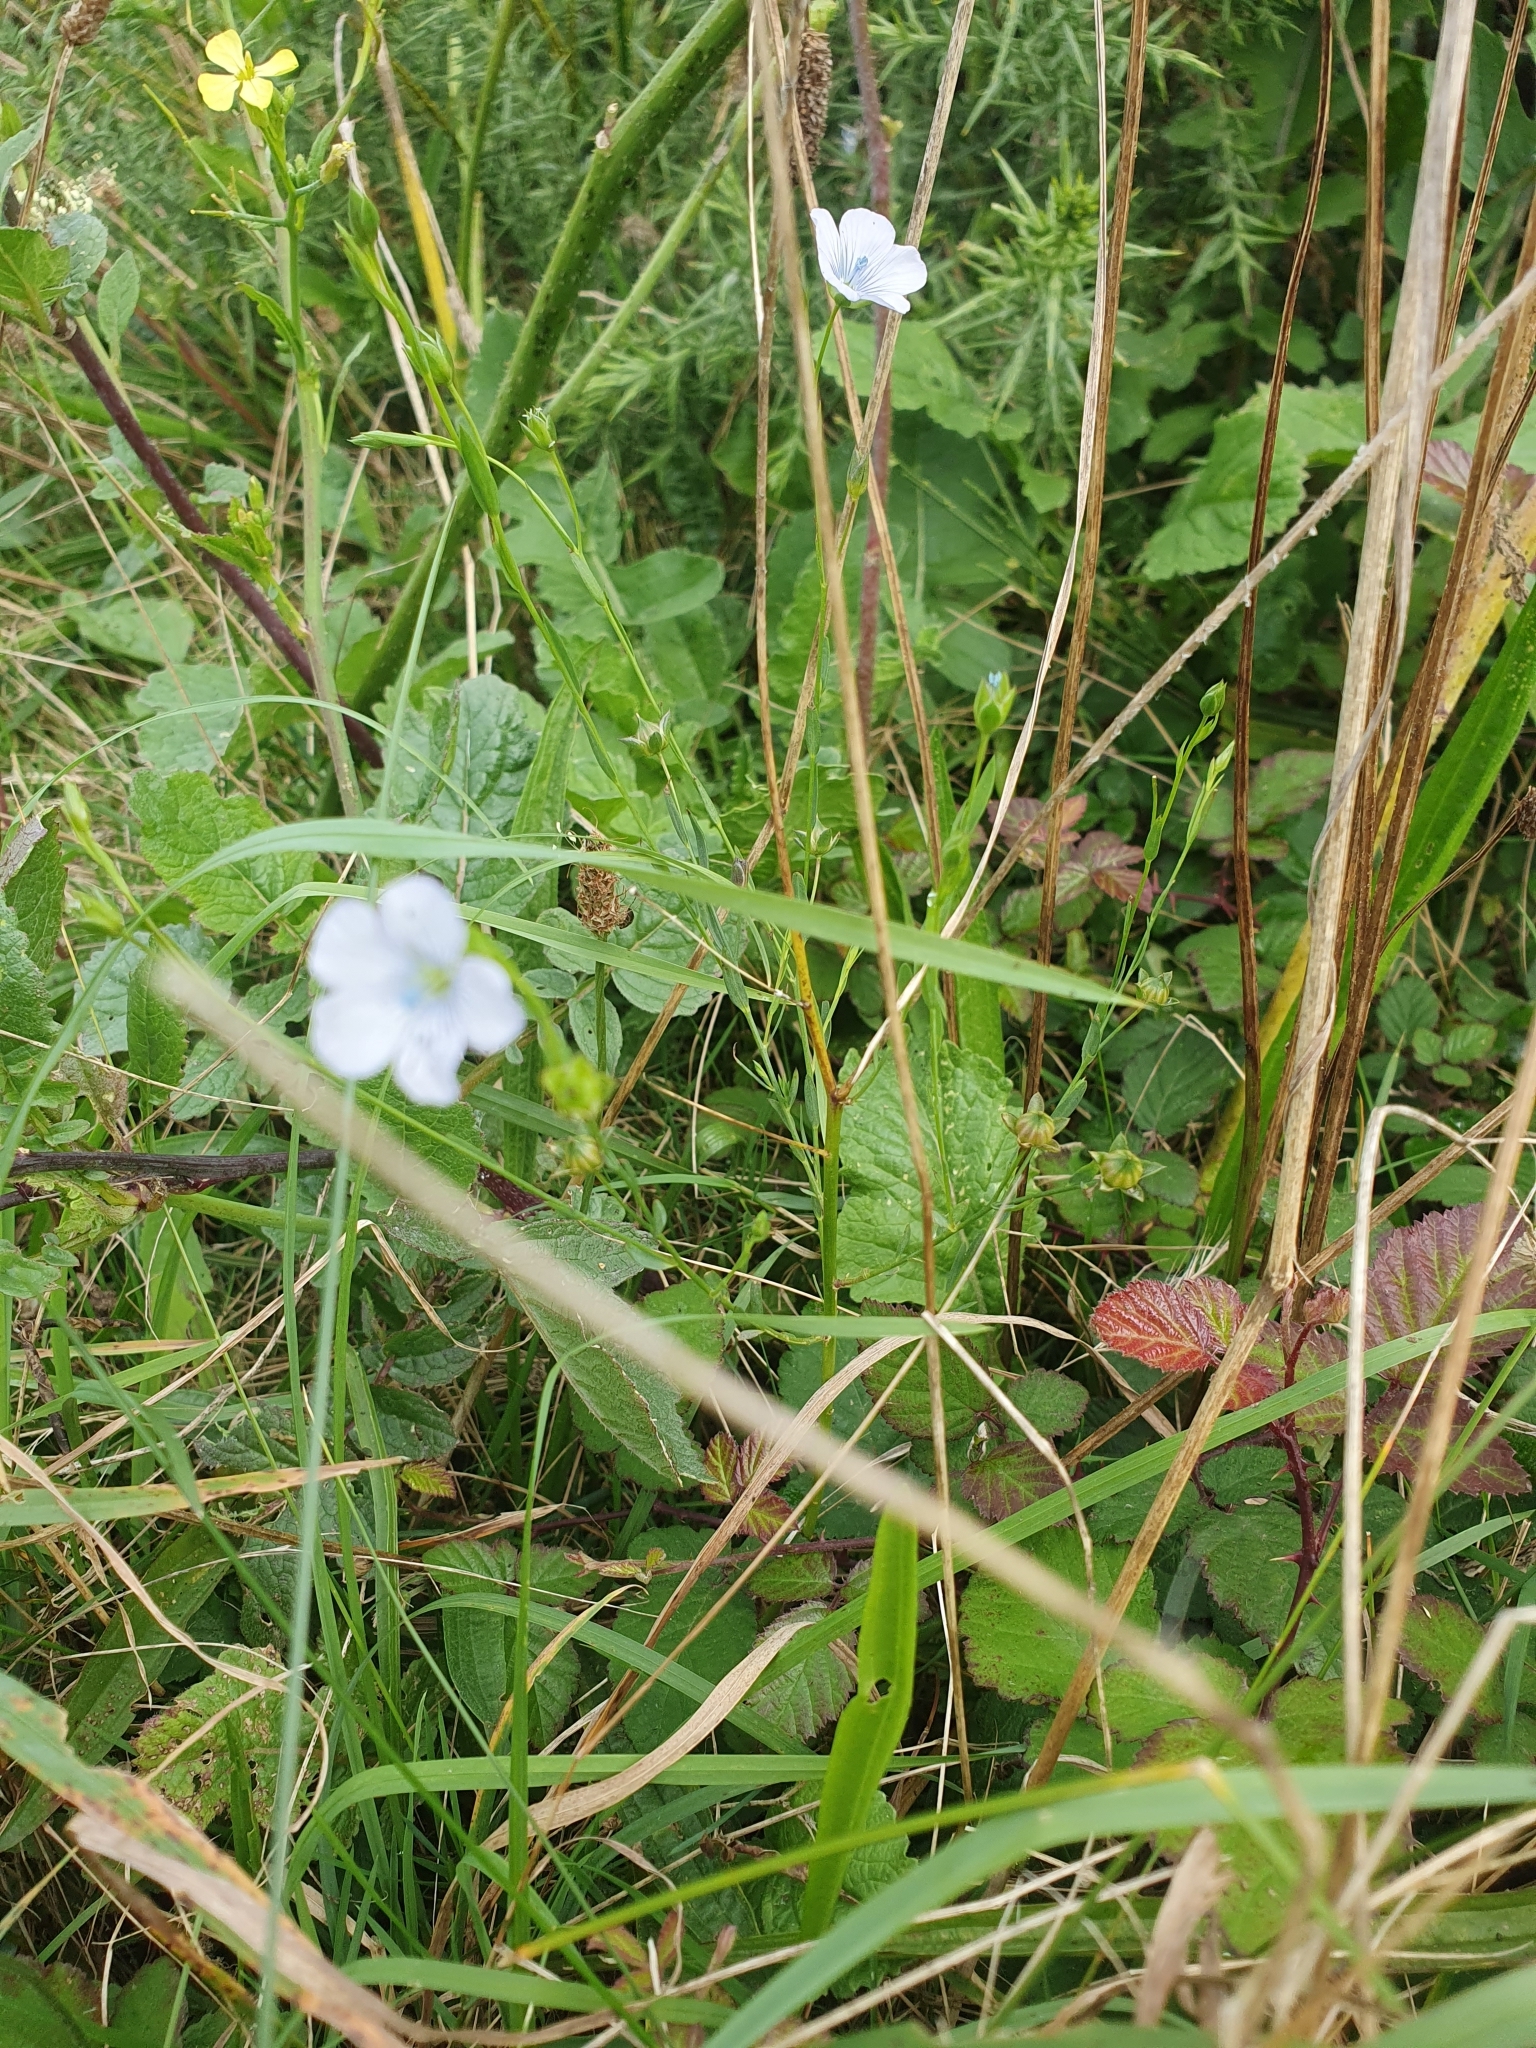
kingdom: Plantae
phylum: Tracheophyta
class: Magnoliopsida
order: Malpighiales
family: Linaceae
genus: Linum
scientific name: Linum bienne
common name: Pale flax
